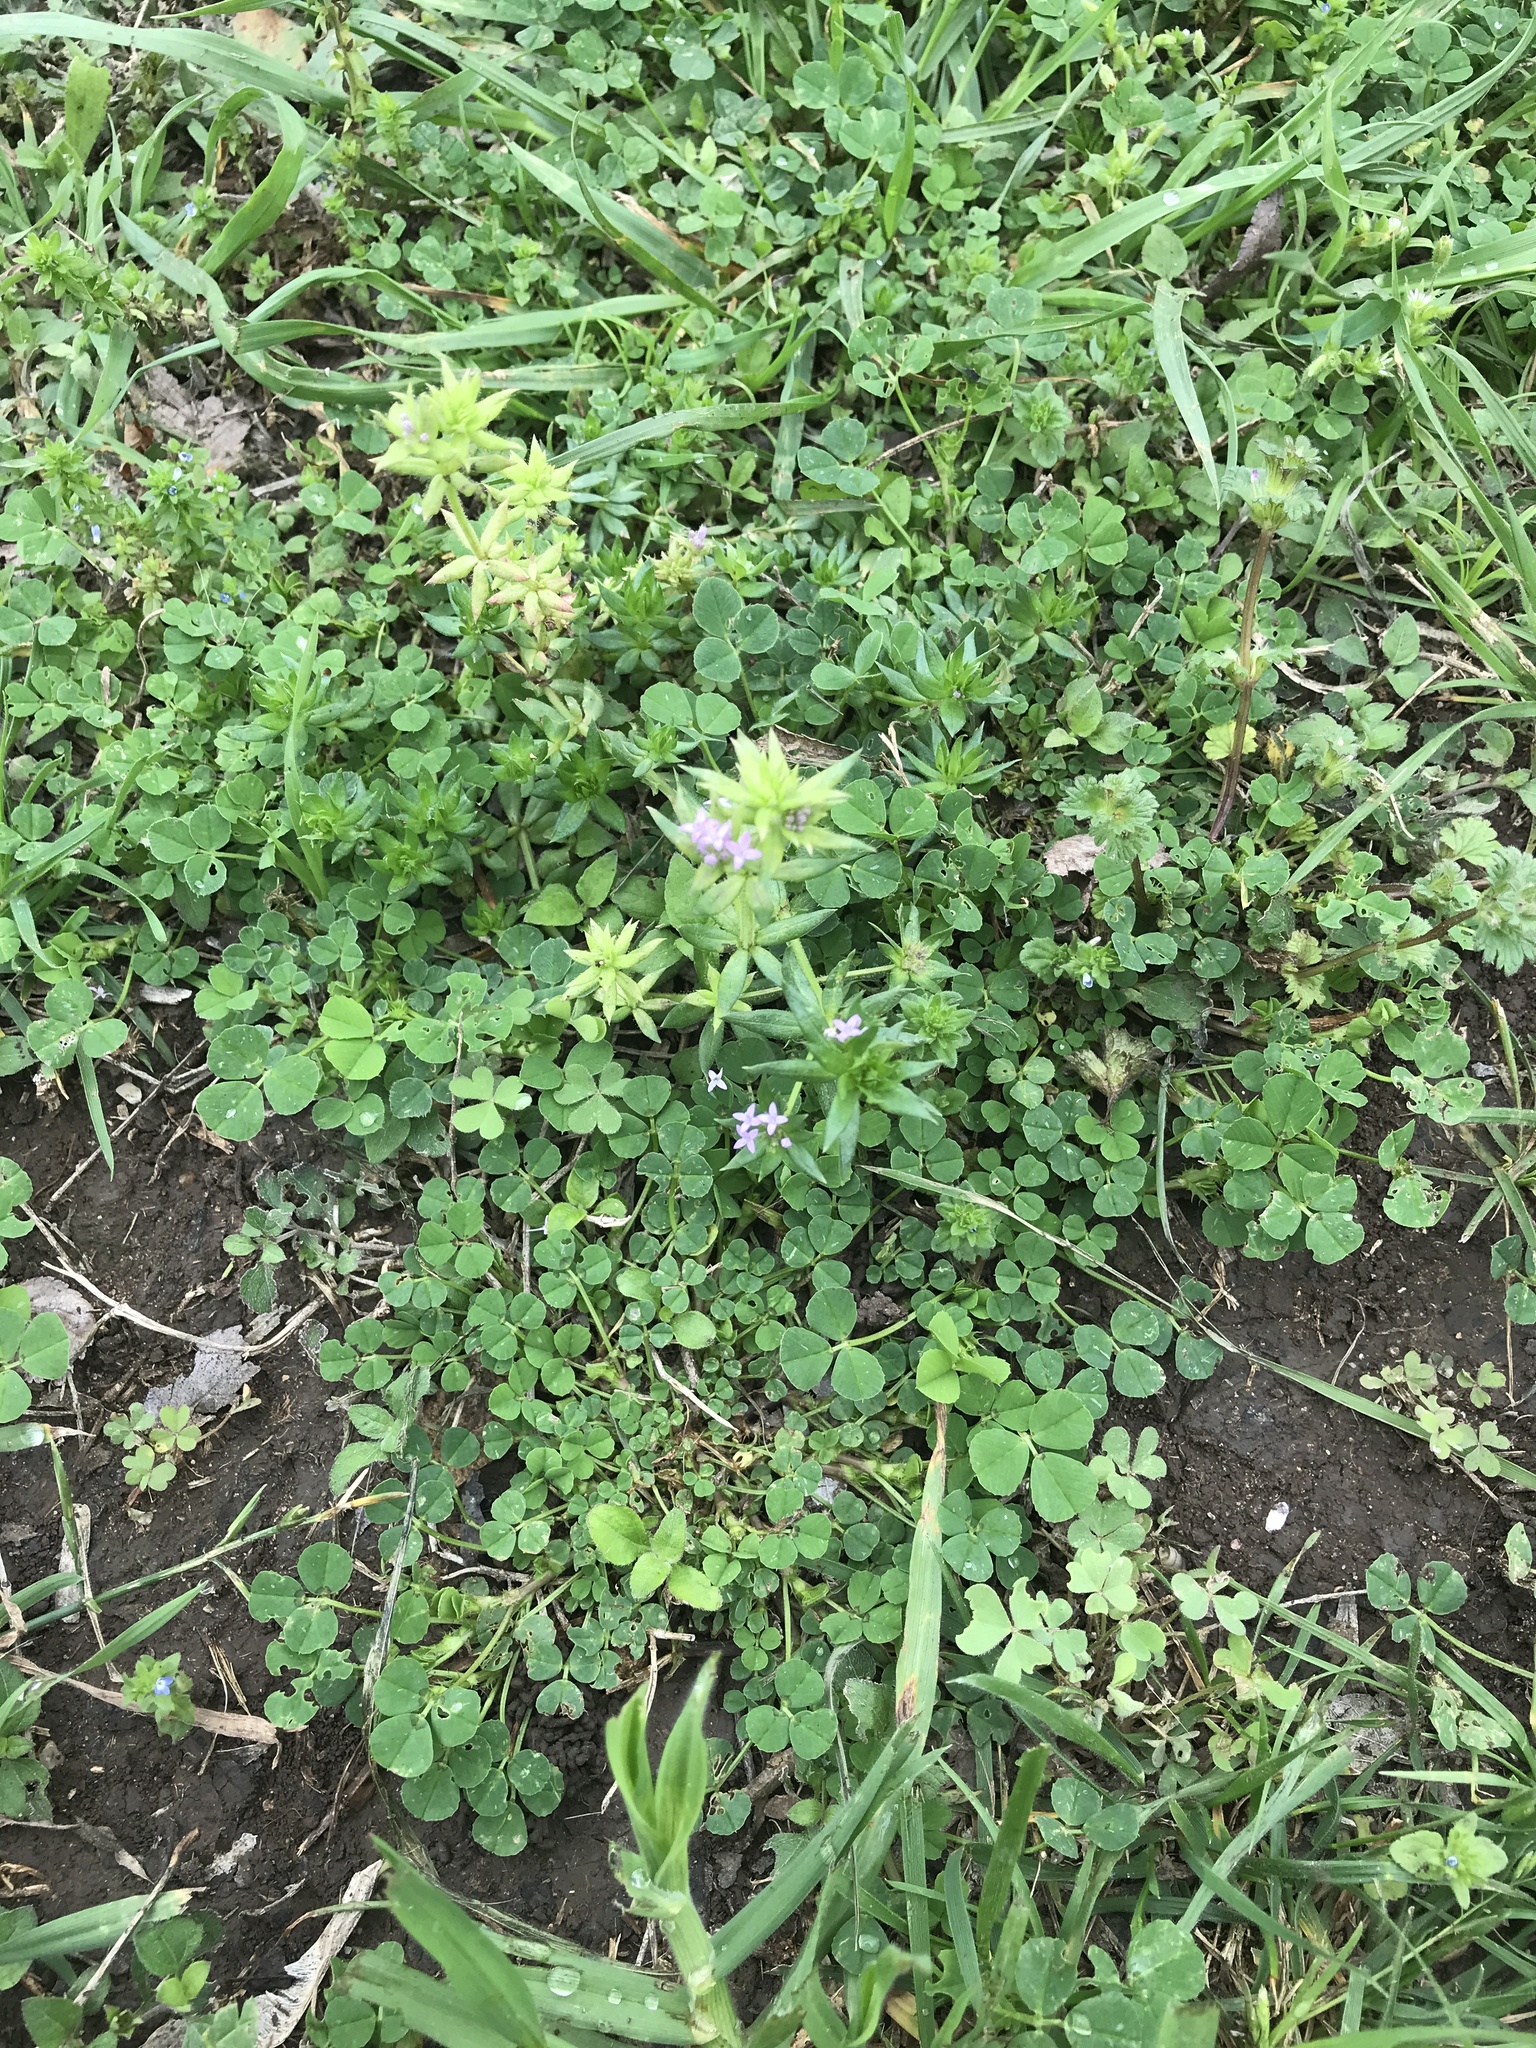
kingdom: Plantae
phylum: Tracheophyta
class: Magnoliopsida
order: Gentianales
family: Rubiaceae
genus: Sherardia
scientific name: Sherardia arvensis
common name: Field madder
